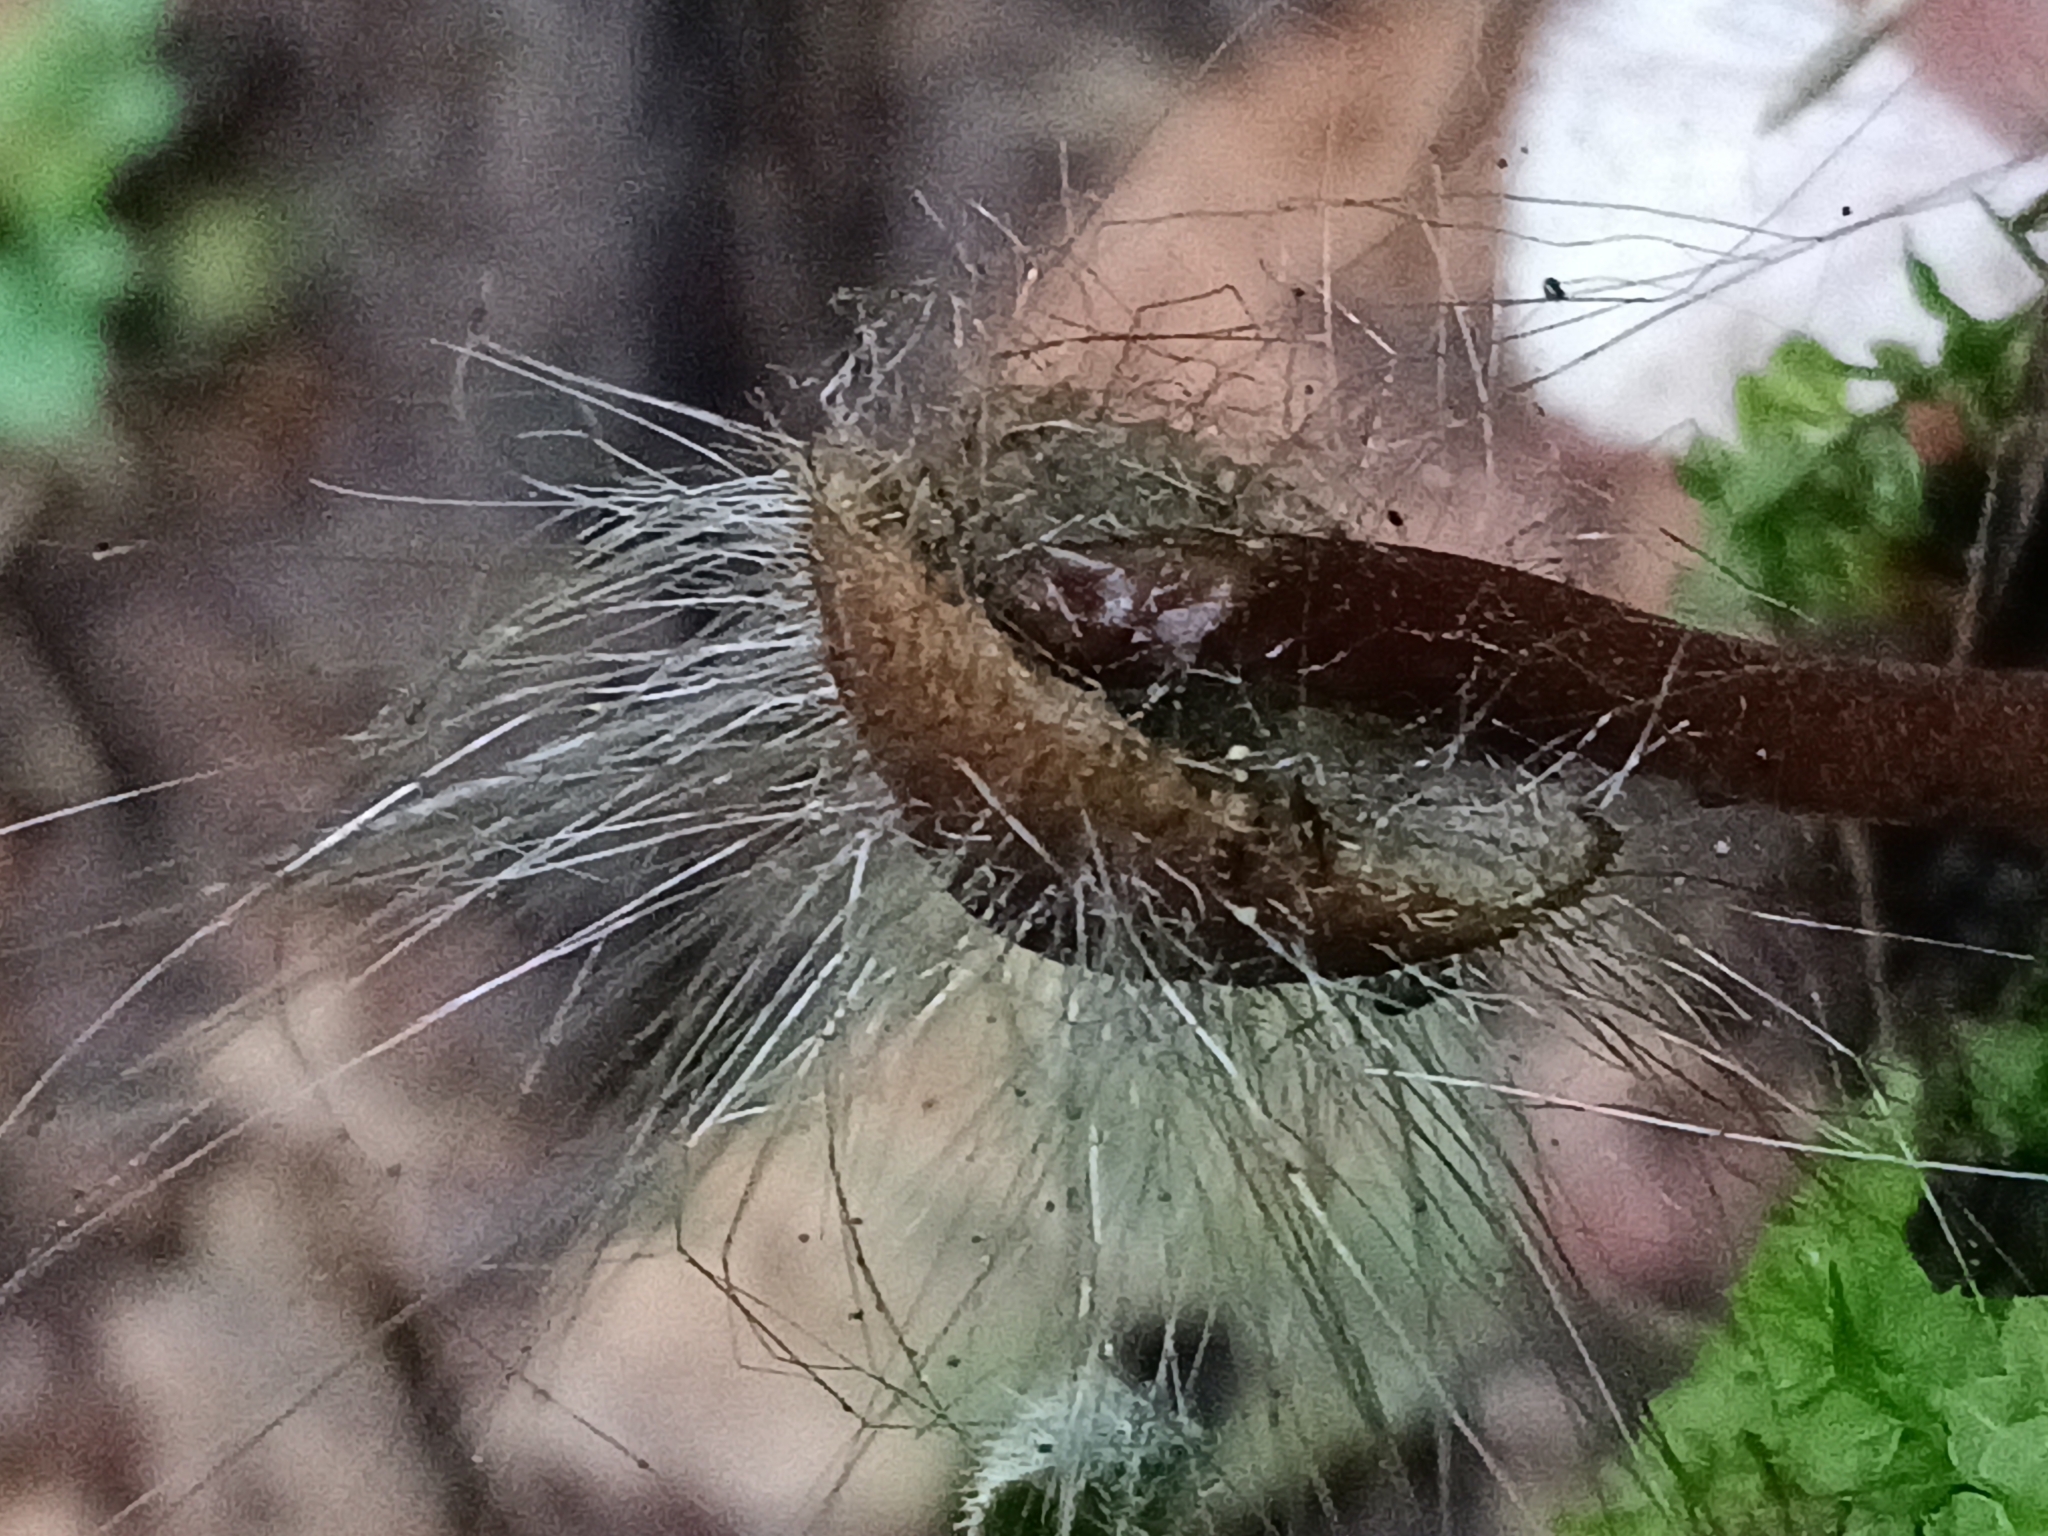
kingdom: Fungi
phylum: Mucoromycota
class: Mucoromycetes
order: Mucorales
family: Phycomycetaceae
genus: Spinellus
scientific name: Spinellus fusiger
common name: Bonnet mould
